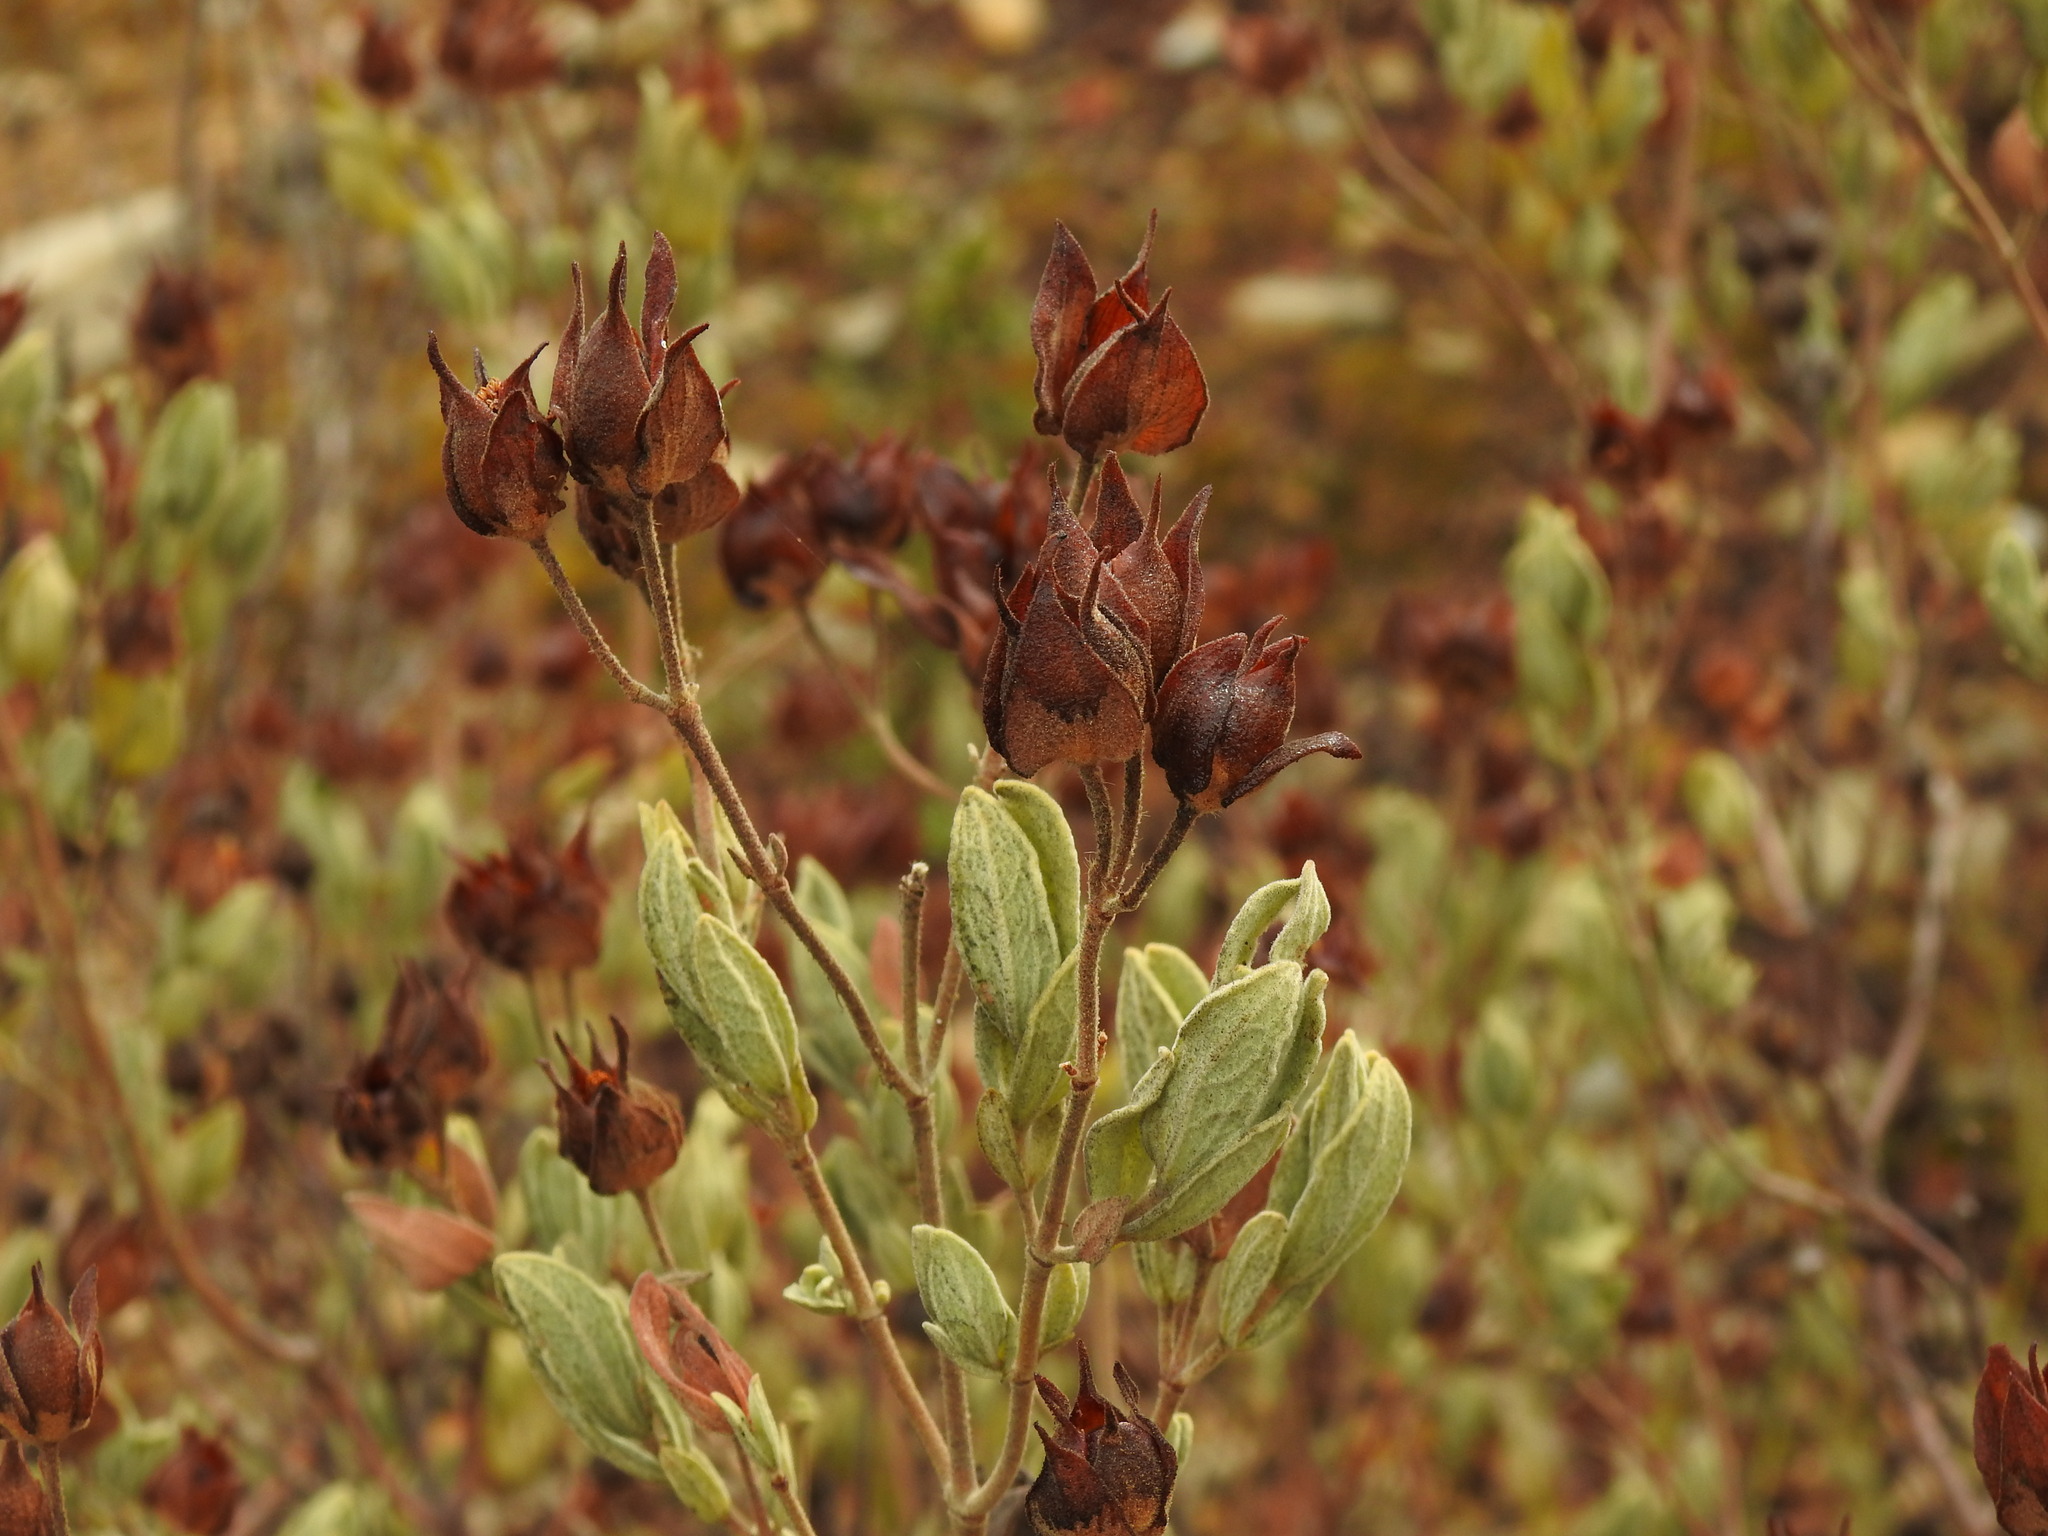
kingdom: Plantae
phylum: Tracheophyta
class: Magnoliopsida
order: Malvales
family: Cistaceae
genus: Cistus
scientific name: Cistus albidus
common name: White-leaf rock-rose
